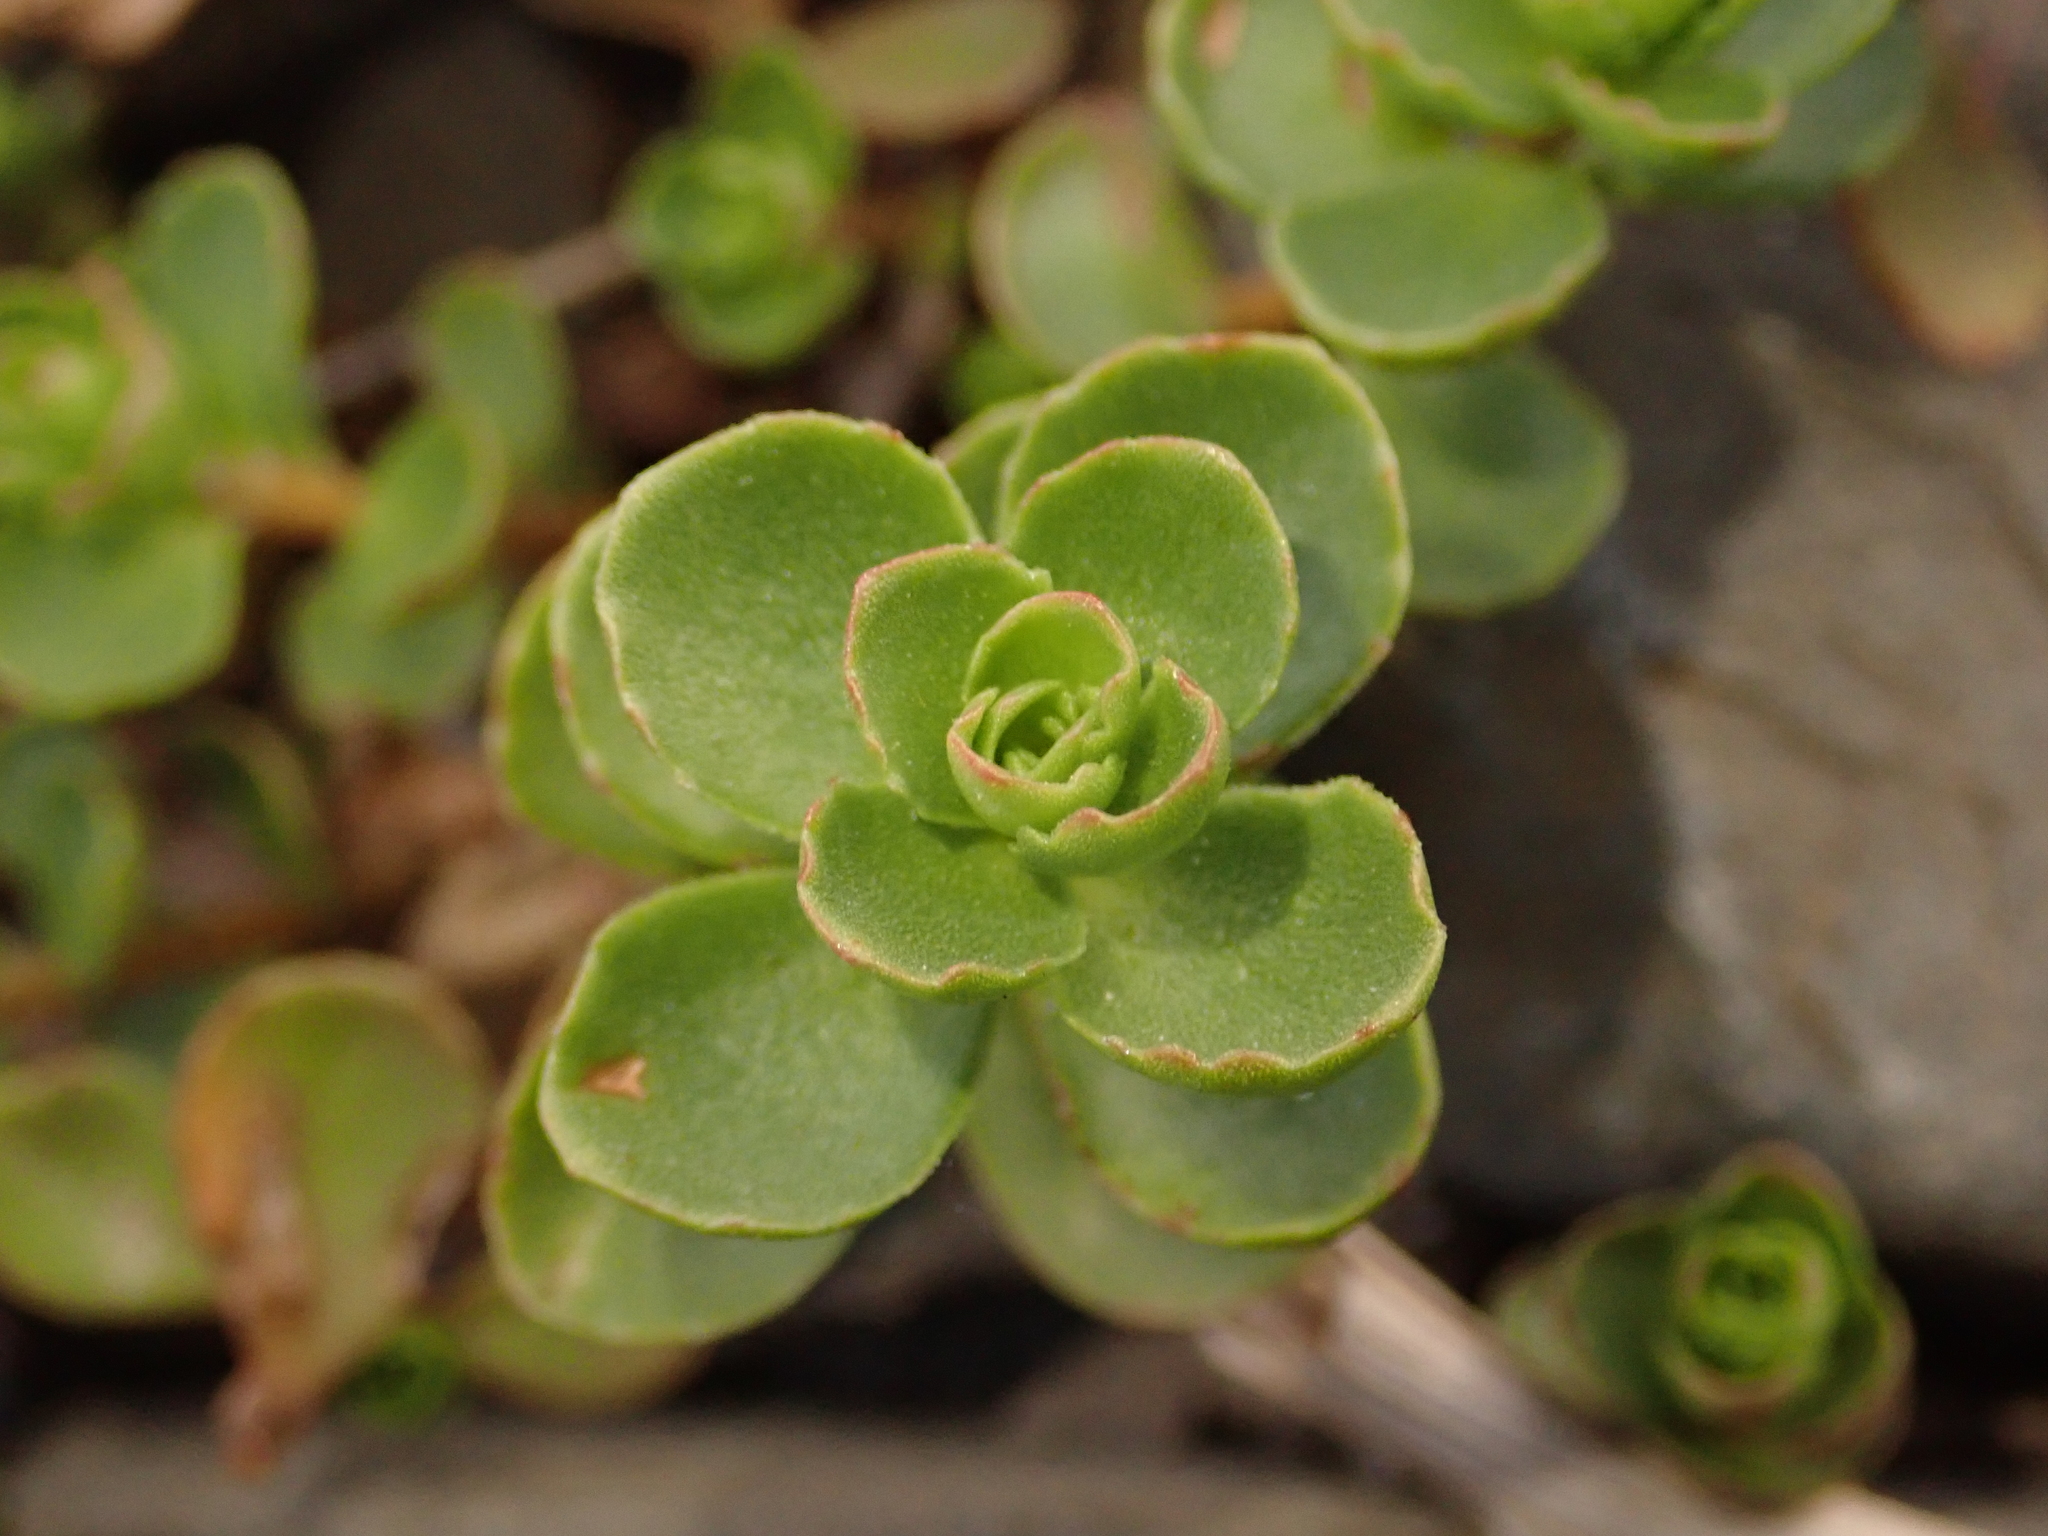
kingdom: Plantae
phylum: Tracheophyta
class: Magnoliopsida
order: Saxifragales
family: Crassulaceae
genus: Phedimus
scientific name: Phedimus spurius
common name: Caucasian stonecrop
